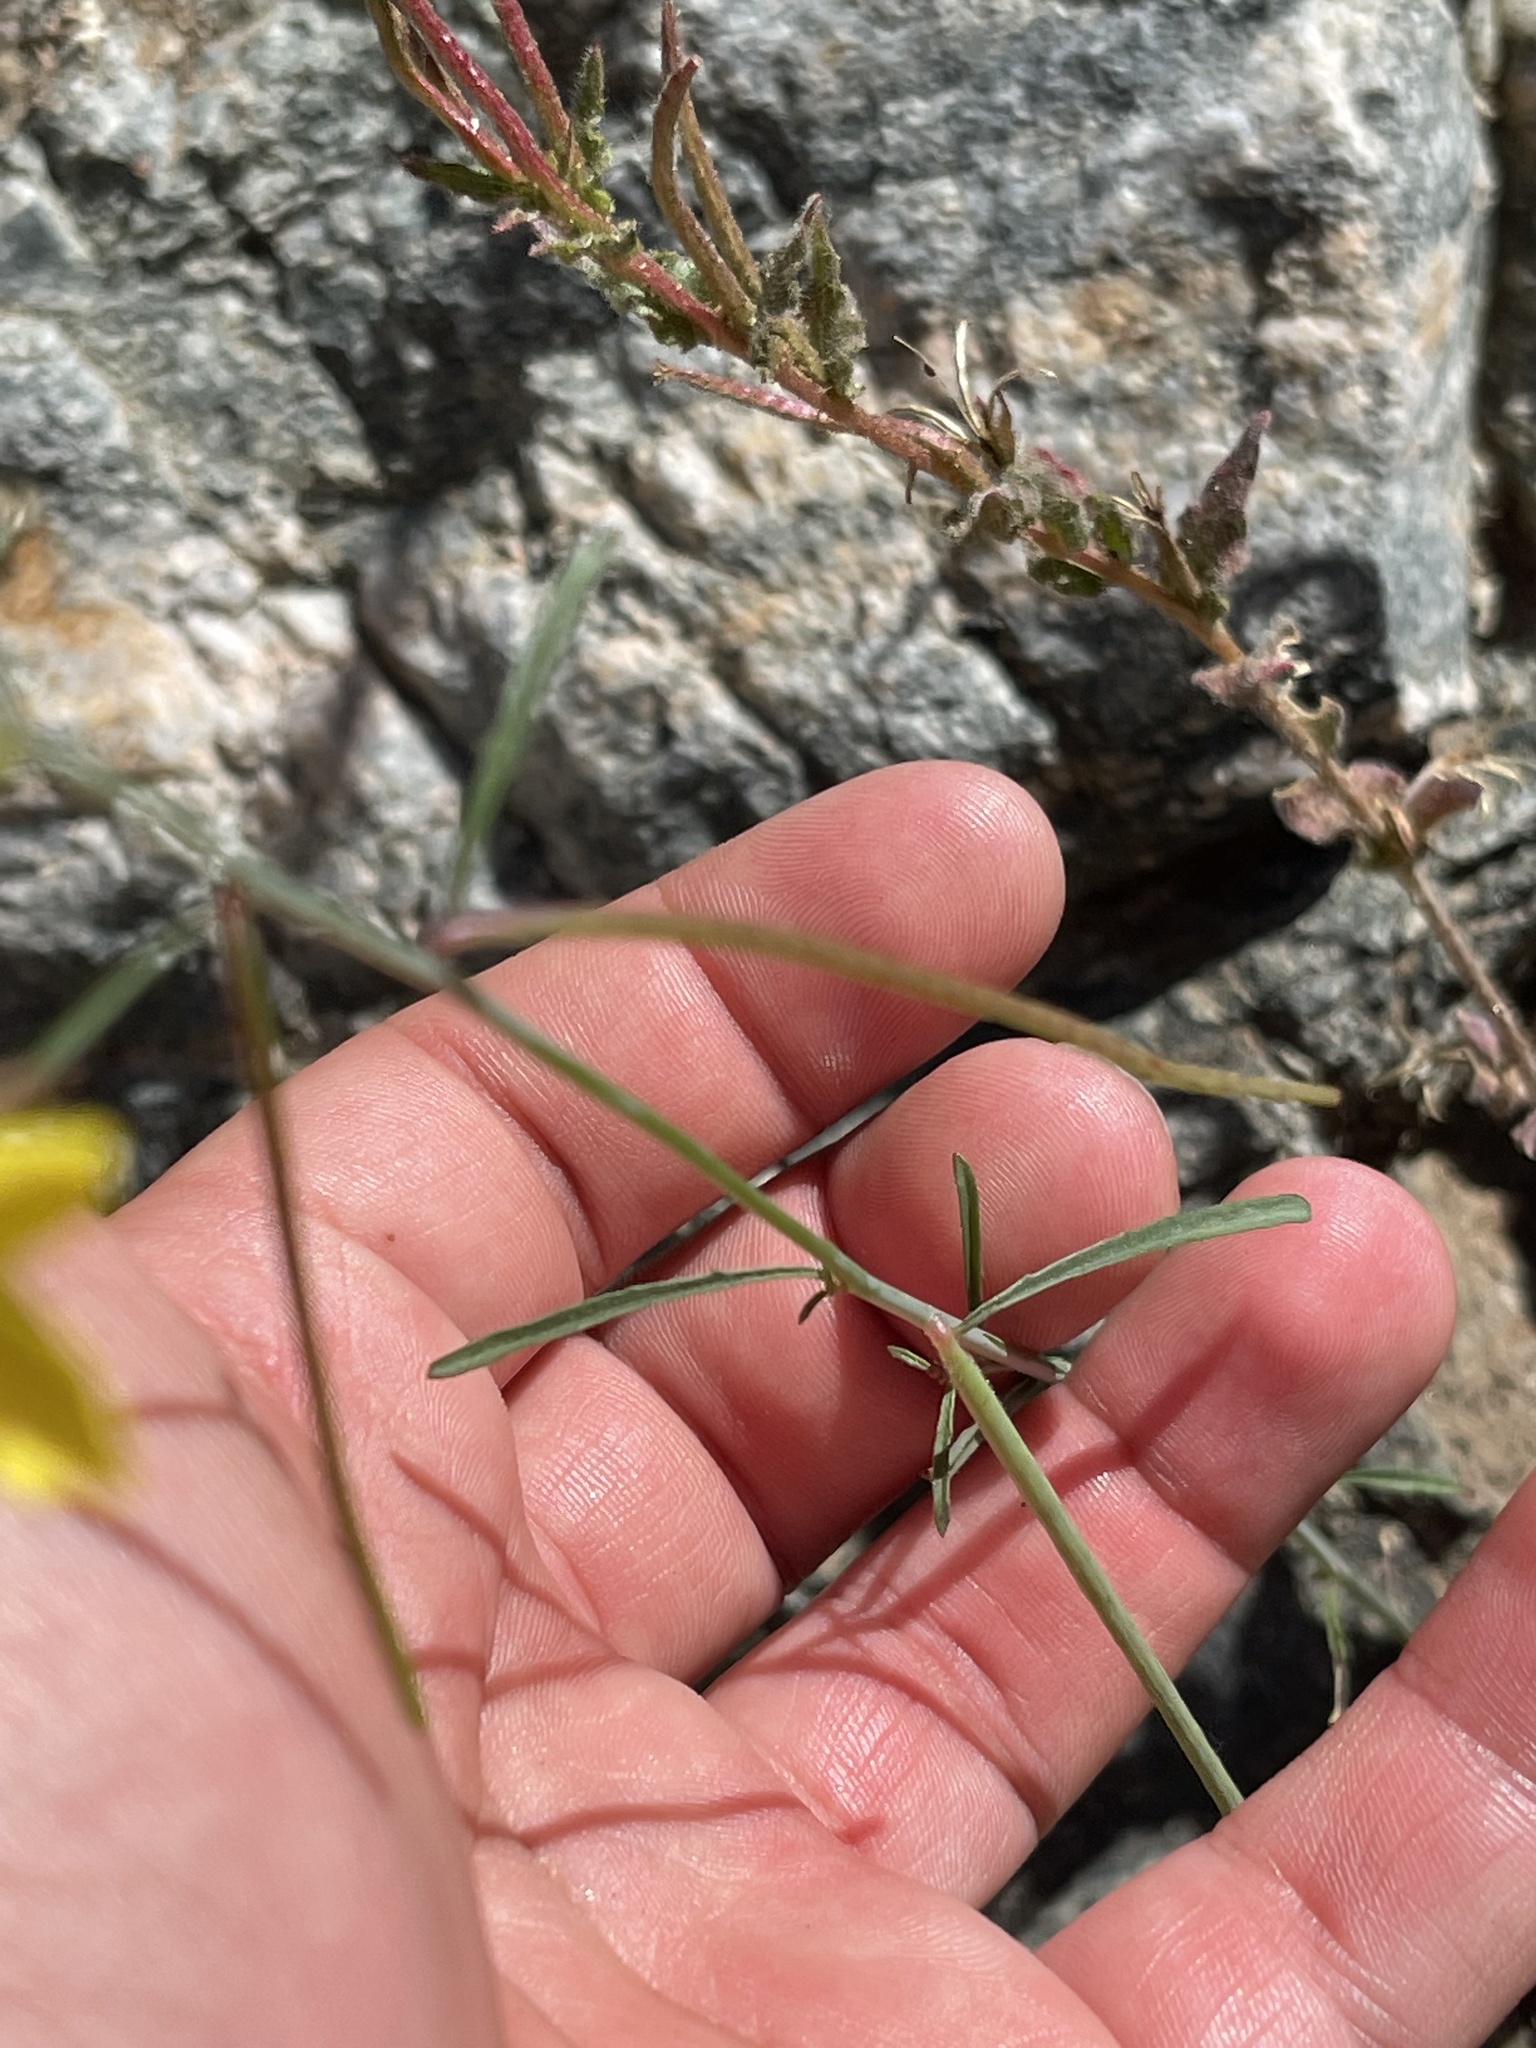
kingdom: Plantae
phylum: Tracheophyta
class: Magnoliopsida
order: Myrtales
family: Onagraceae
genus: Eulobus
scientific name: Eulobus californicus
